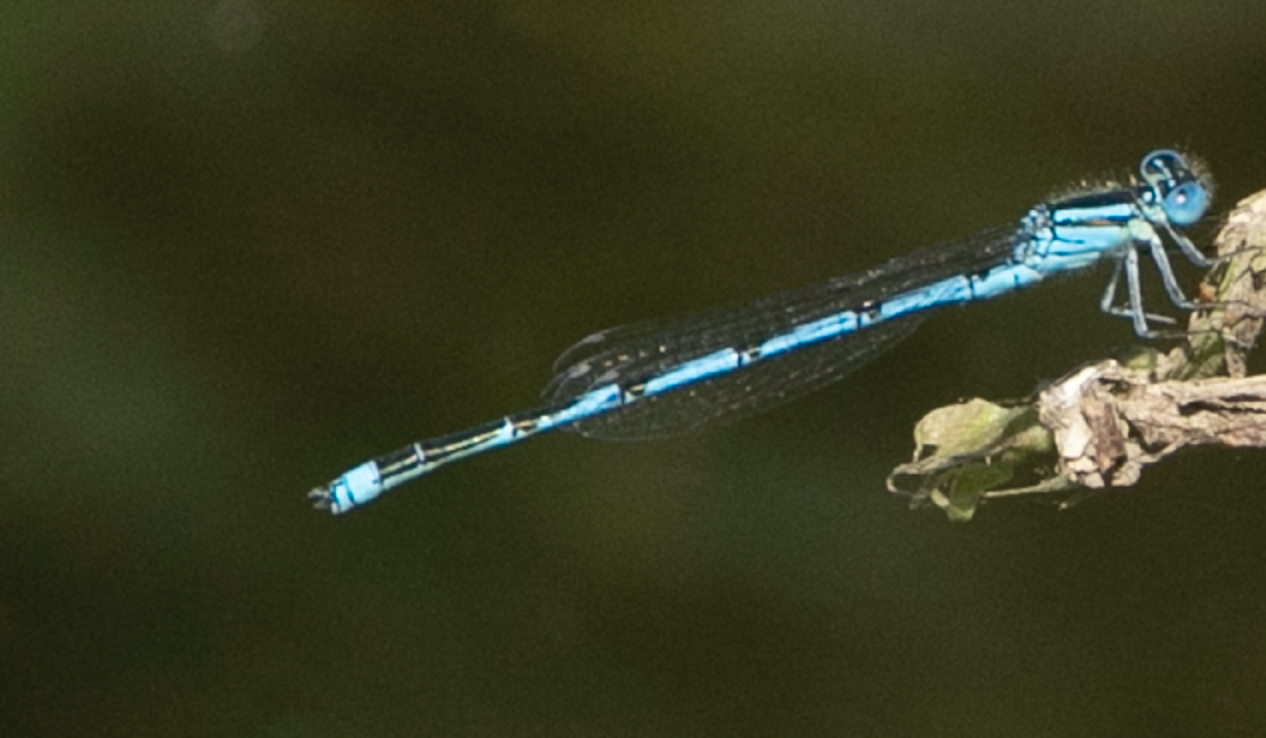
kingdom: Animalia
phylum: Arthropoda
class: Insecta
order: Odonata
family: Coenagrionidae
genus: Erythromma
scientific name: Erythromma lindenii
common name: Blue-eye
